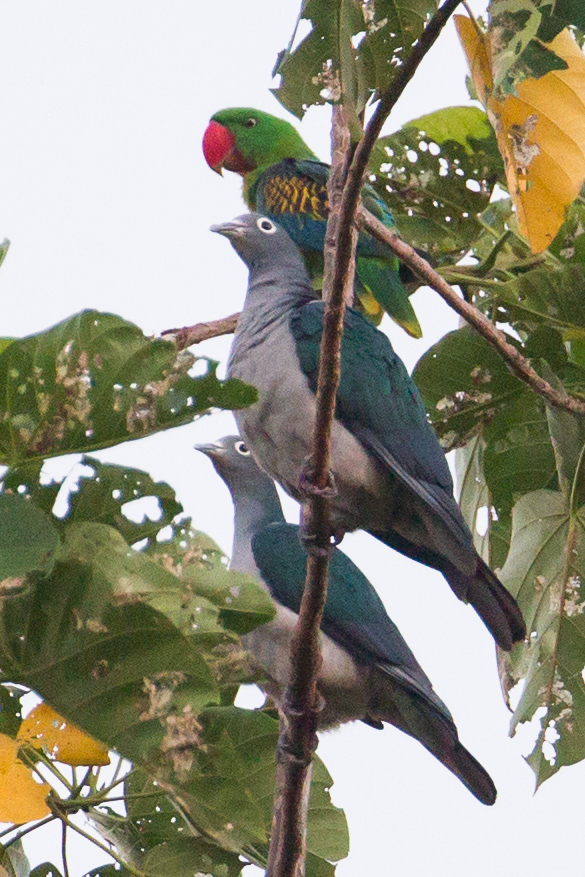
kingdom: Animalia
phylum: Chordata
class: Aves
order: Columbiformes
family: Columbidae
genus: Ducula
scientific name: Ducula perspicillata
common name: Spectacled imperial pigeon
